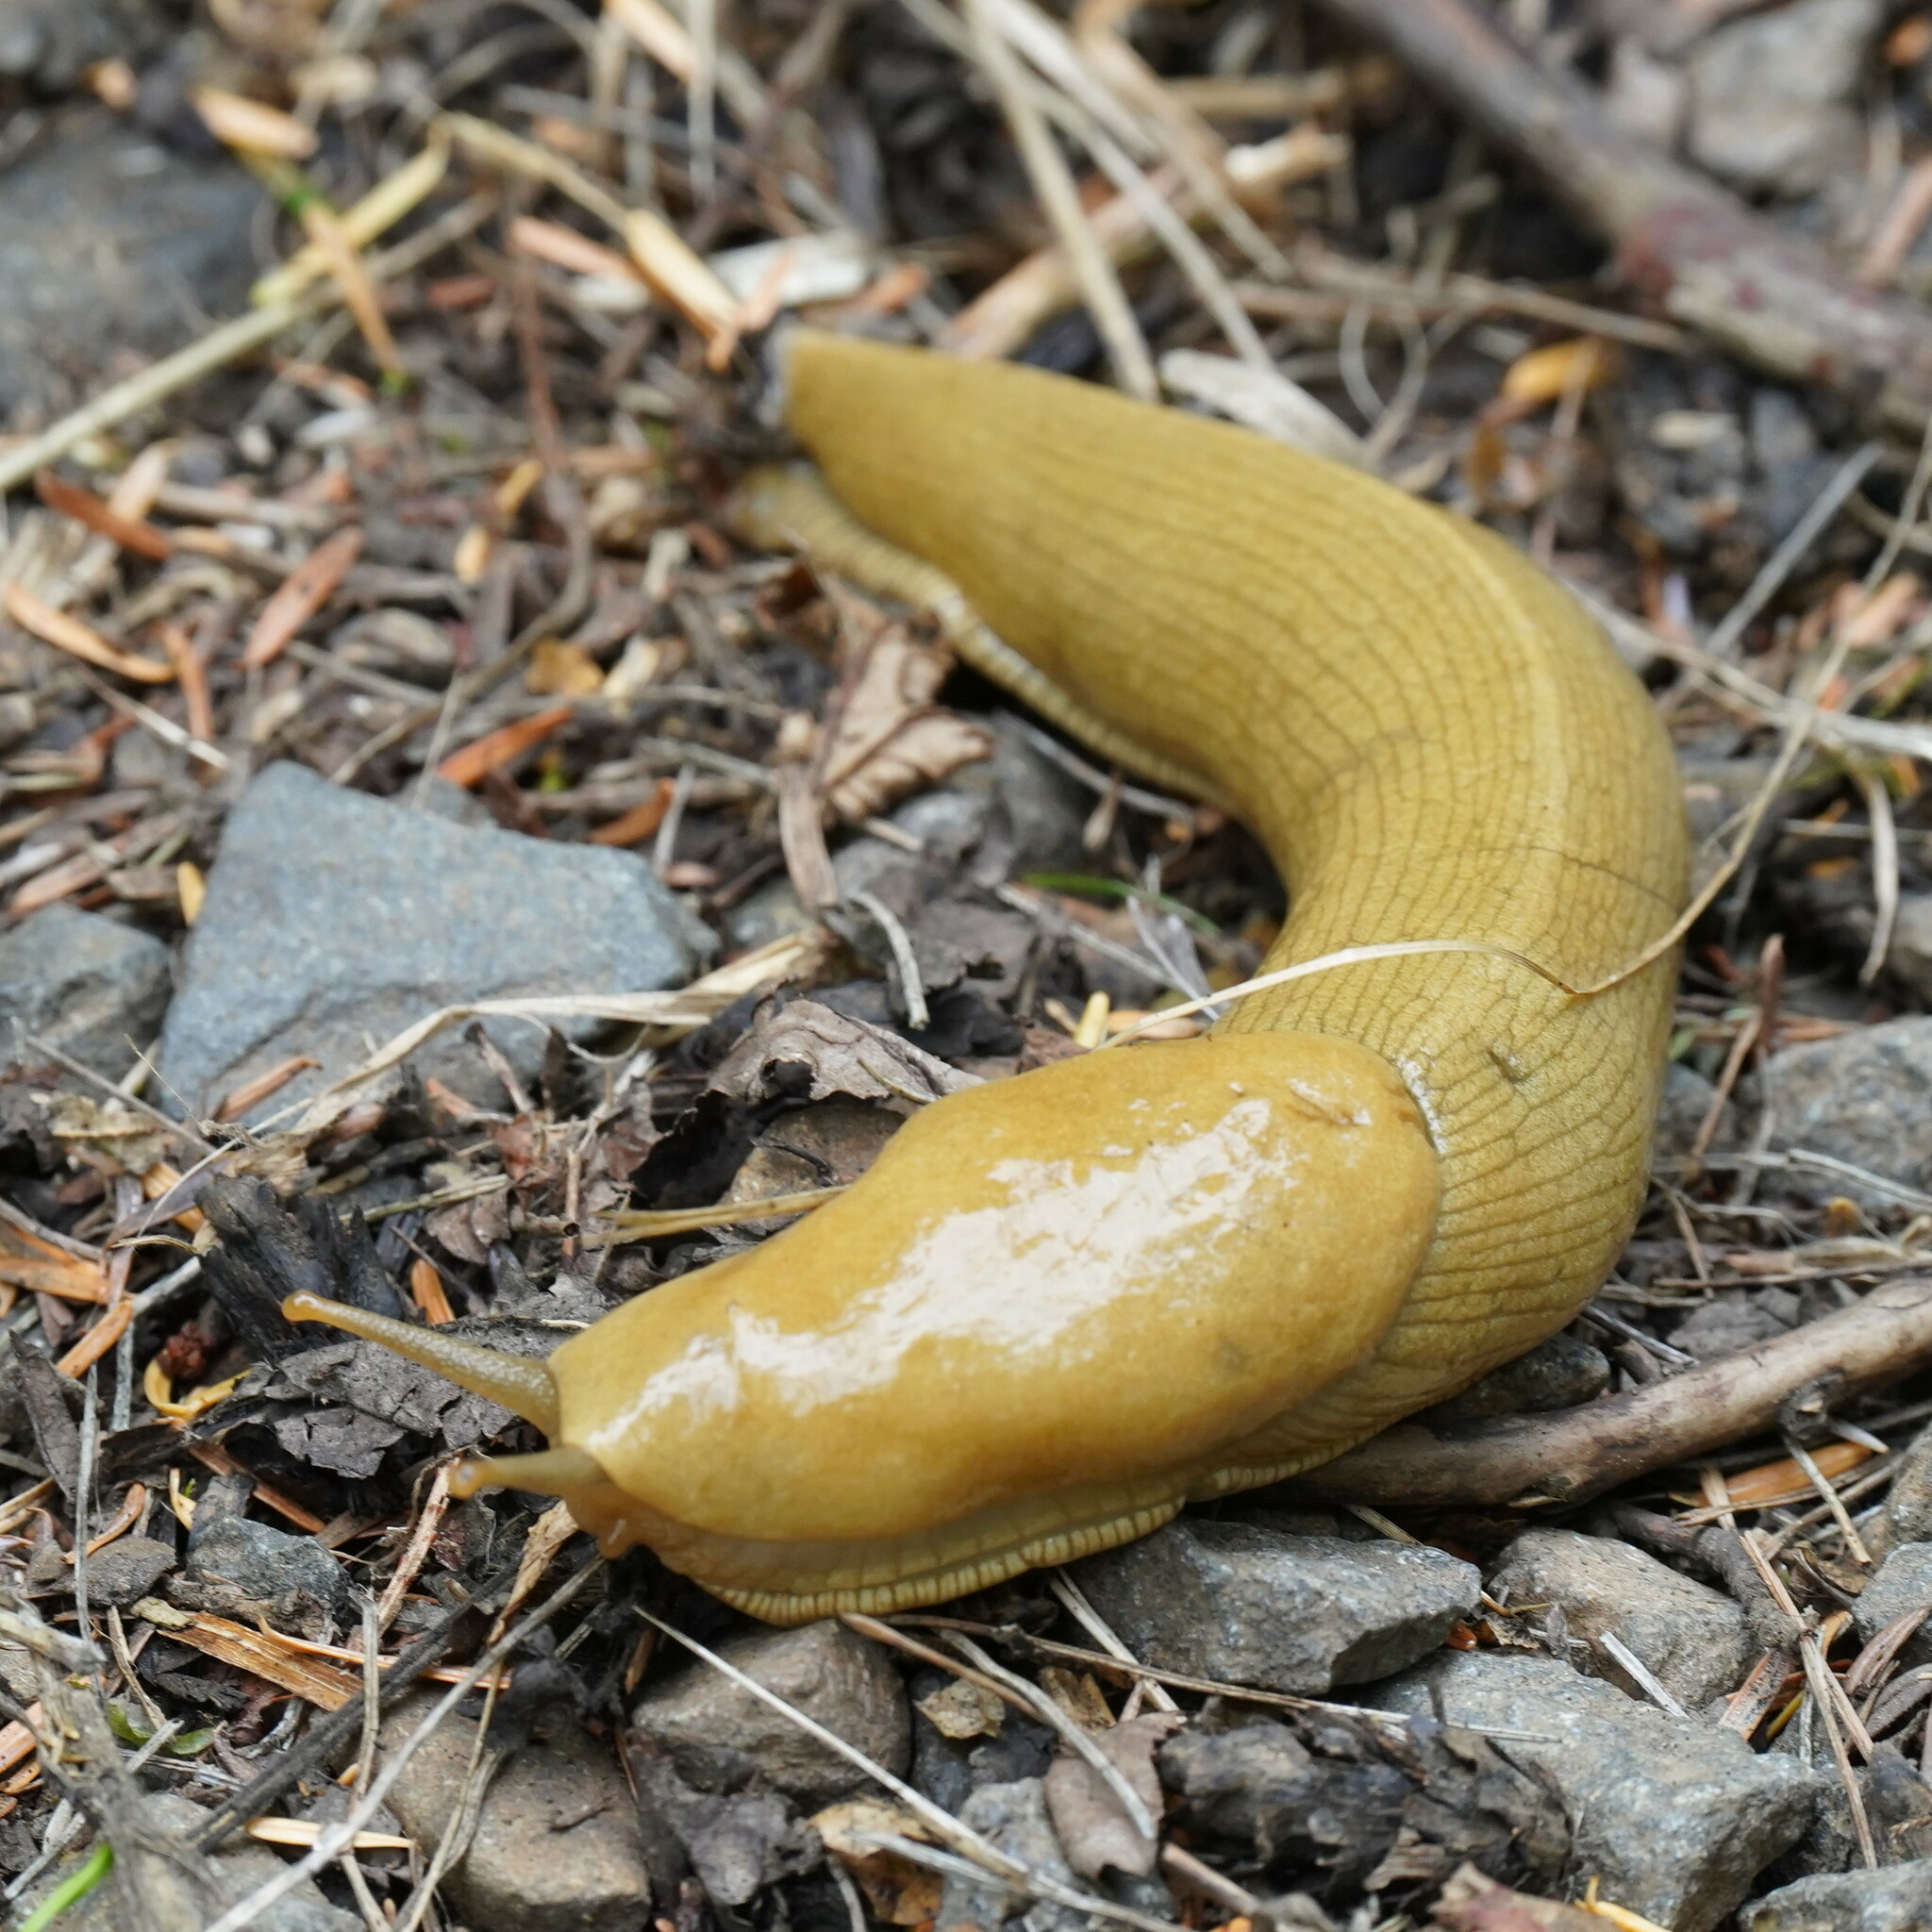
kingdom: Animalia
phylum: Mollusca
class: Gastropoda
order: Stylommatophora
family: Ariolimacidae
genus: Ariolimax
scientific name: Ariolimax columbianus
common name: Pacific banana slug
